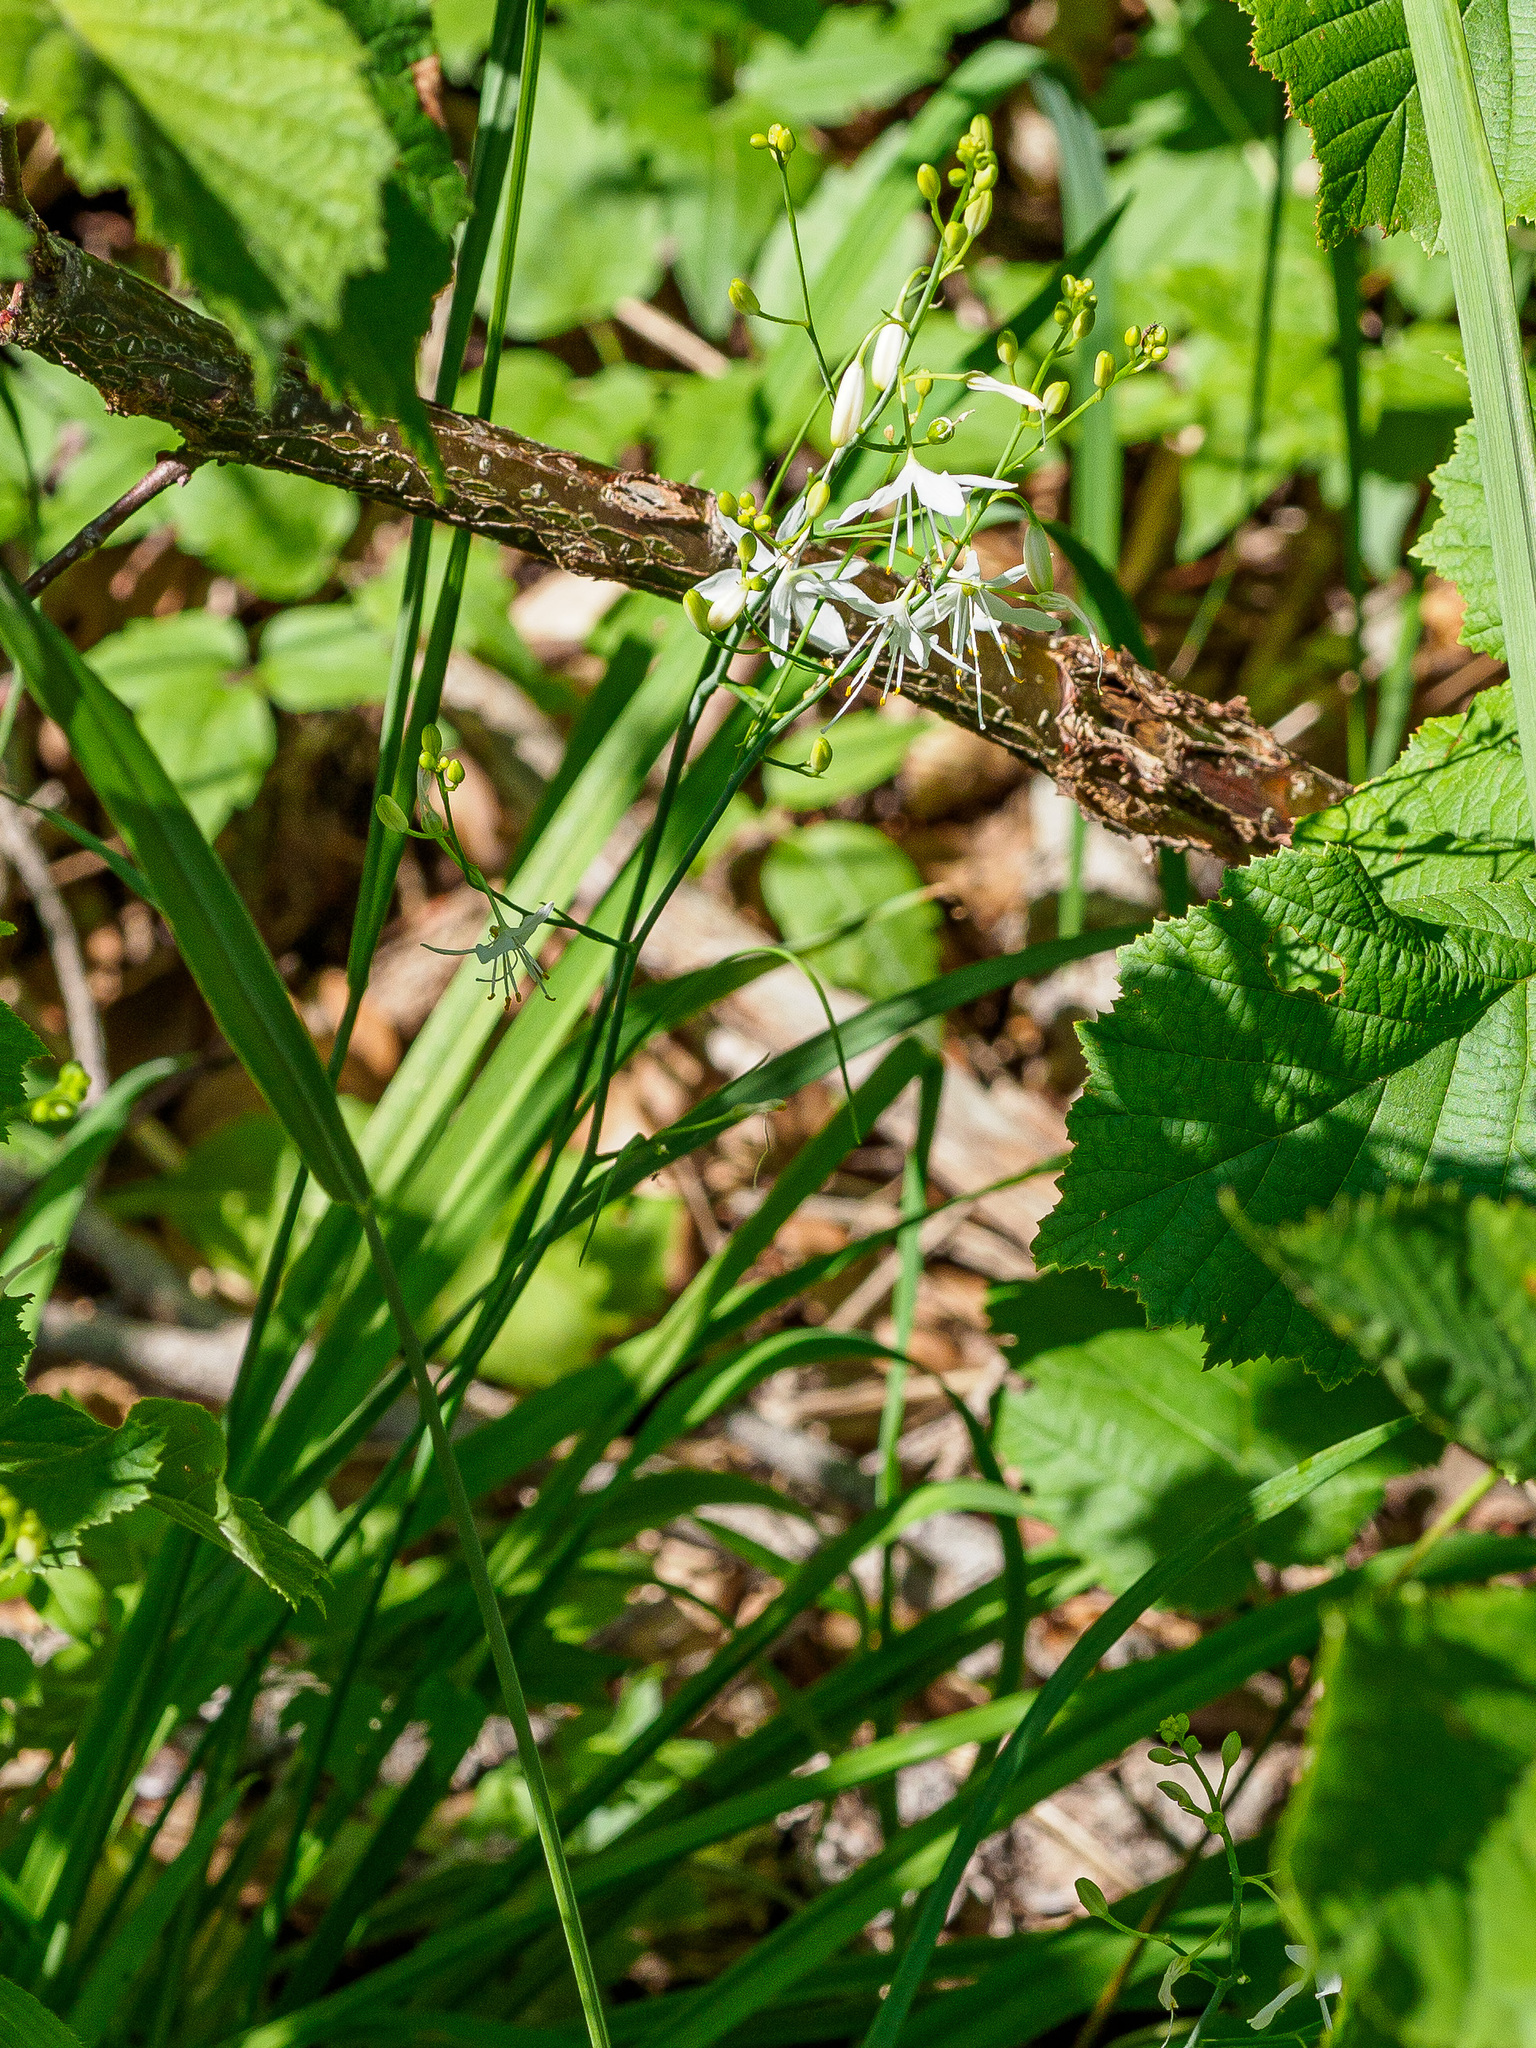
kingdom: Plantae
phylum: Tracheophyta
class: Liliopsida
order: Asparagales
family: Asparagaceae
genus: Anthericum
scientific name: Anthericum ramosum
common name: Branched st. bernard's-lily
